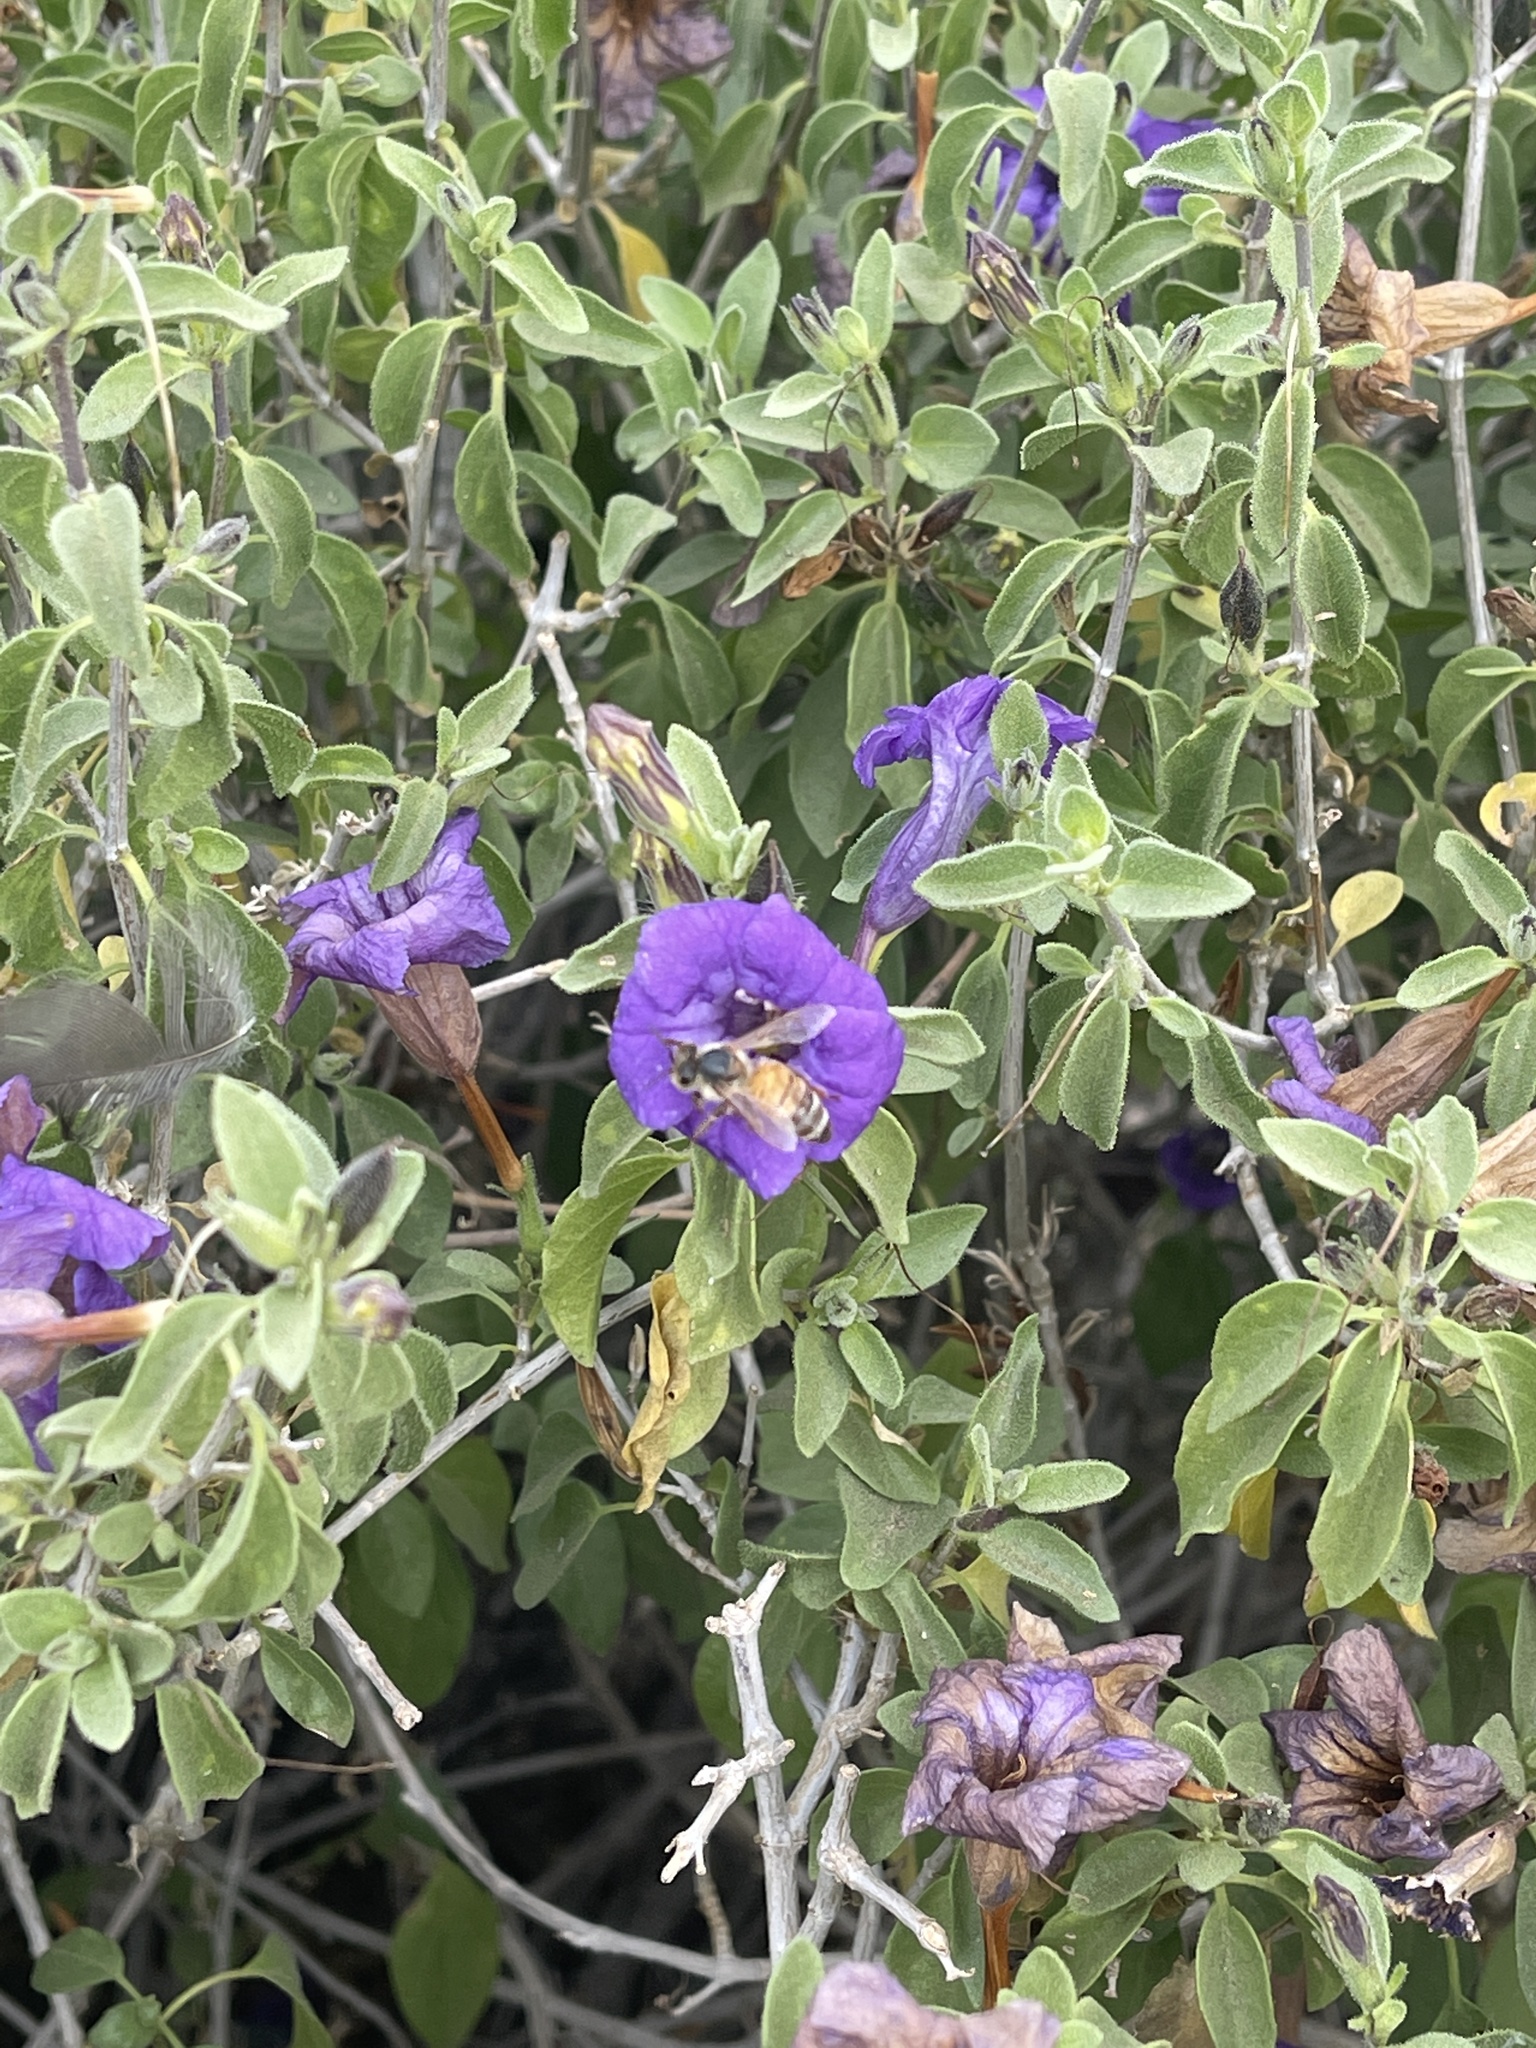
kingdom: Animalia
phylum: Arthropoda
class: Insecta
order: Hymenoptera
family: Apidae
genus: Apis
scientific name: Apis mellifera
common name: Honey bee
